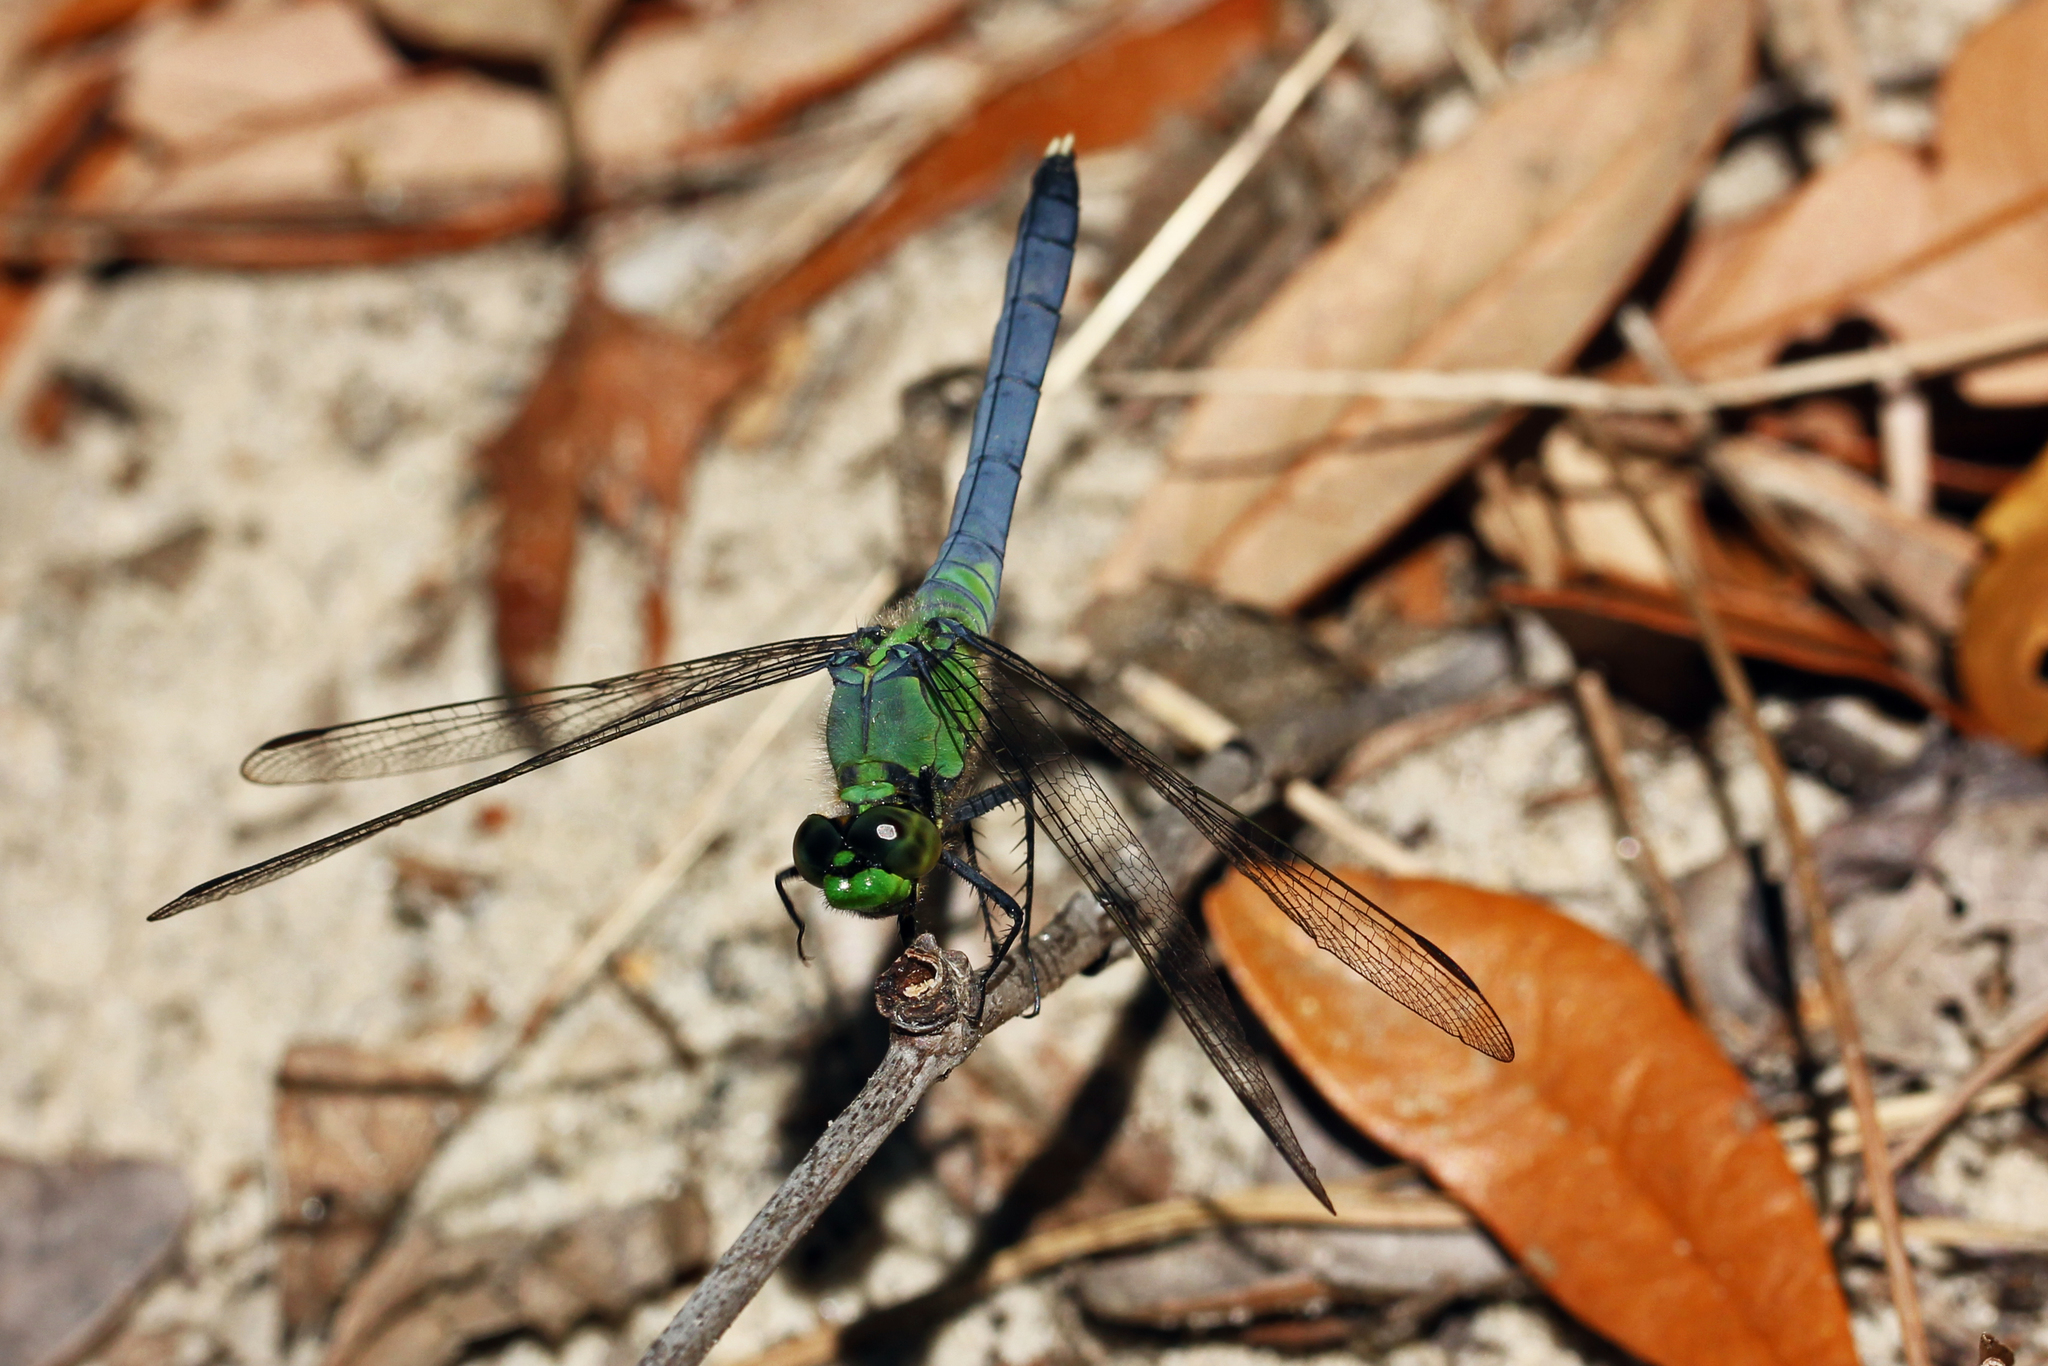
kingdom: Animalia
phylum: Arthropoda
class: Insecta
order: Odonata
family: Libellulidae
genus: Erythemis
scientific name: Erythemis simplicicollis
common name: Eastern pondhawk
